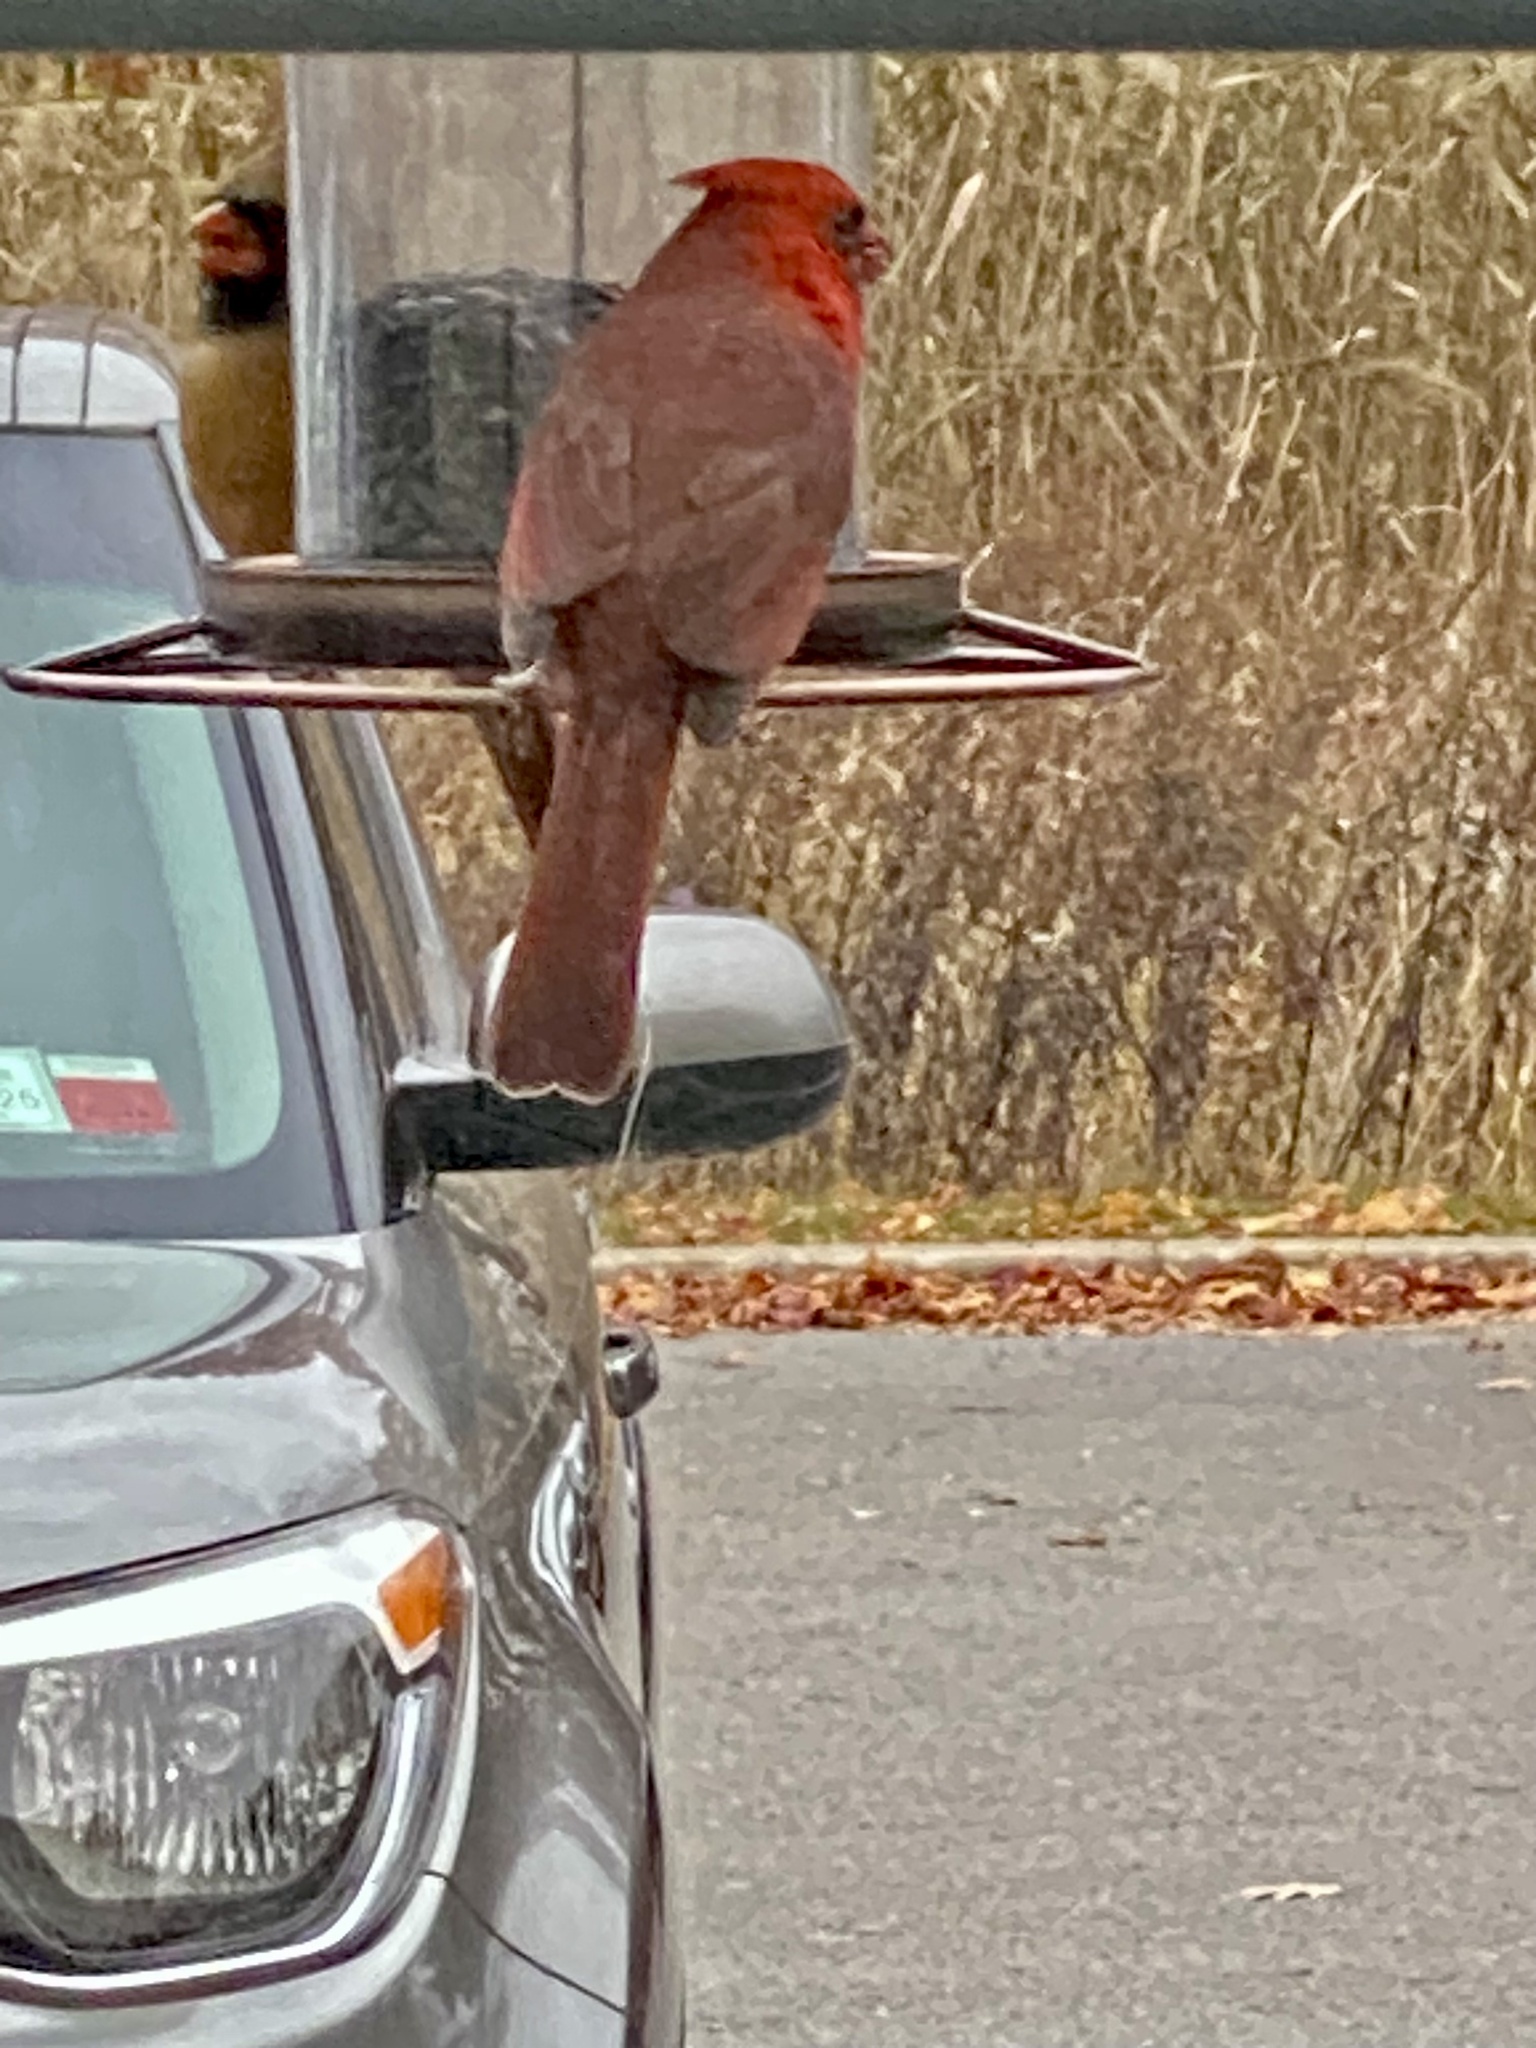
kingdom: Animalia
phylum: Chordata
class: Aves
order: Passeriformes
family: Cardinalidae
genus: Cardinalis
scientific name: Cardinalis cardinalis
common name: Northern cardinal
